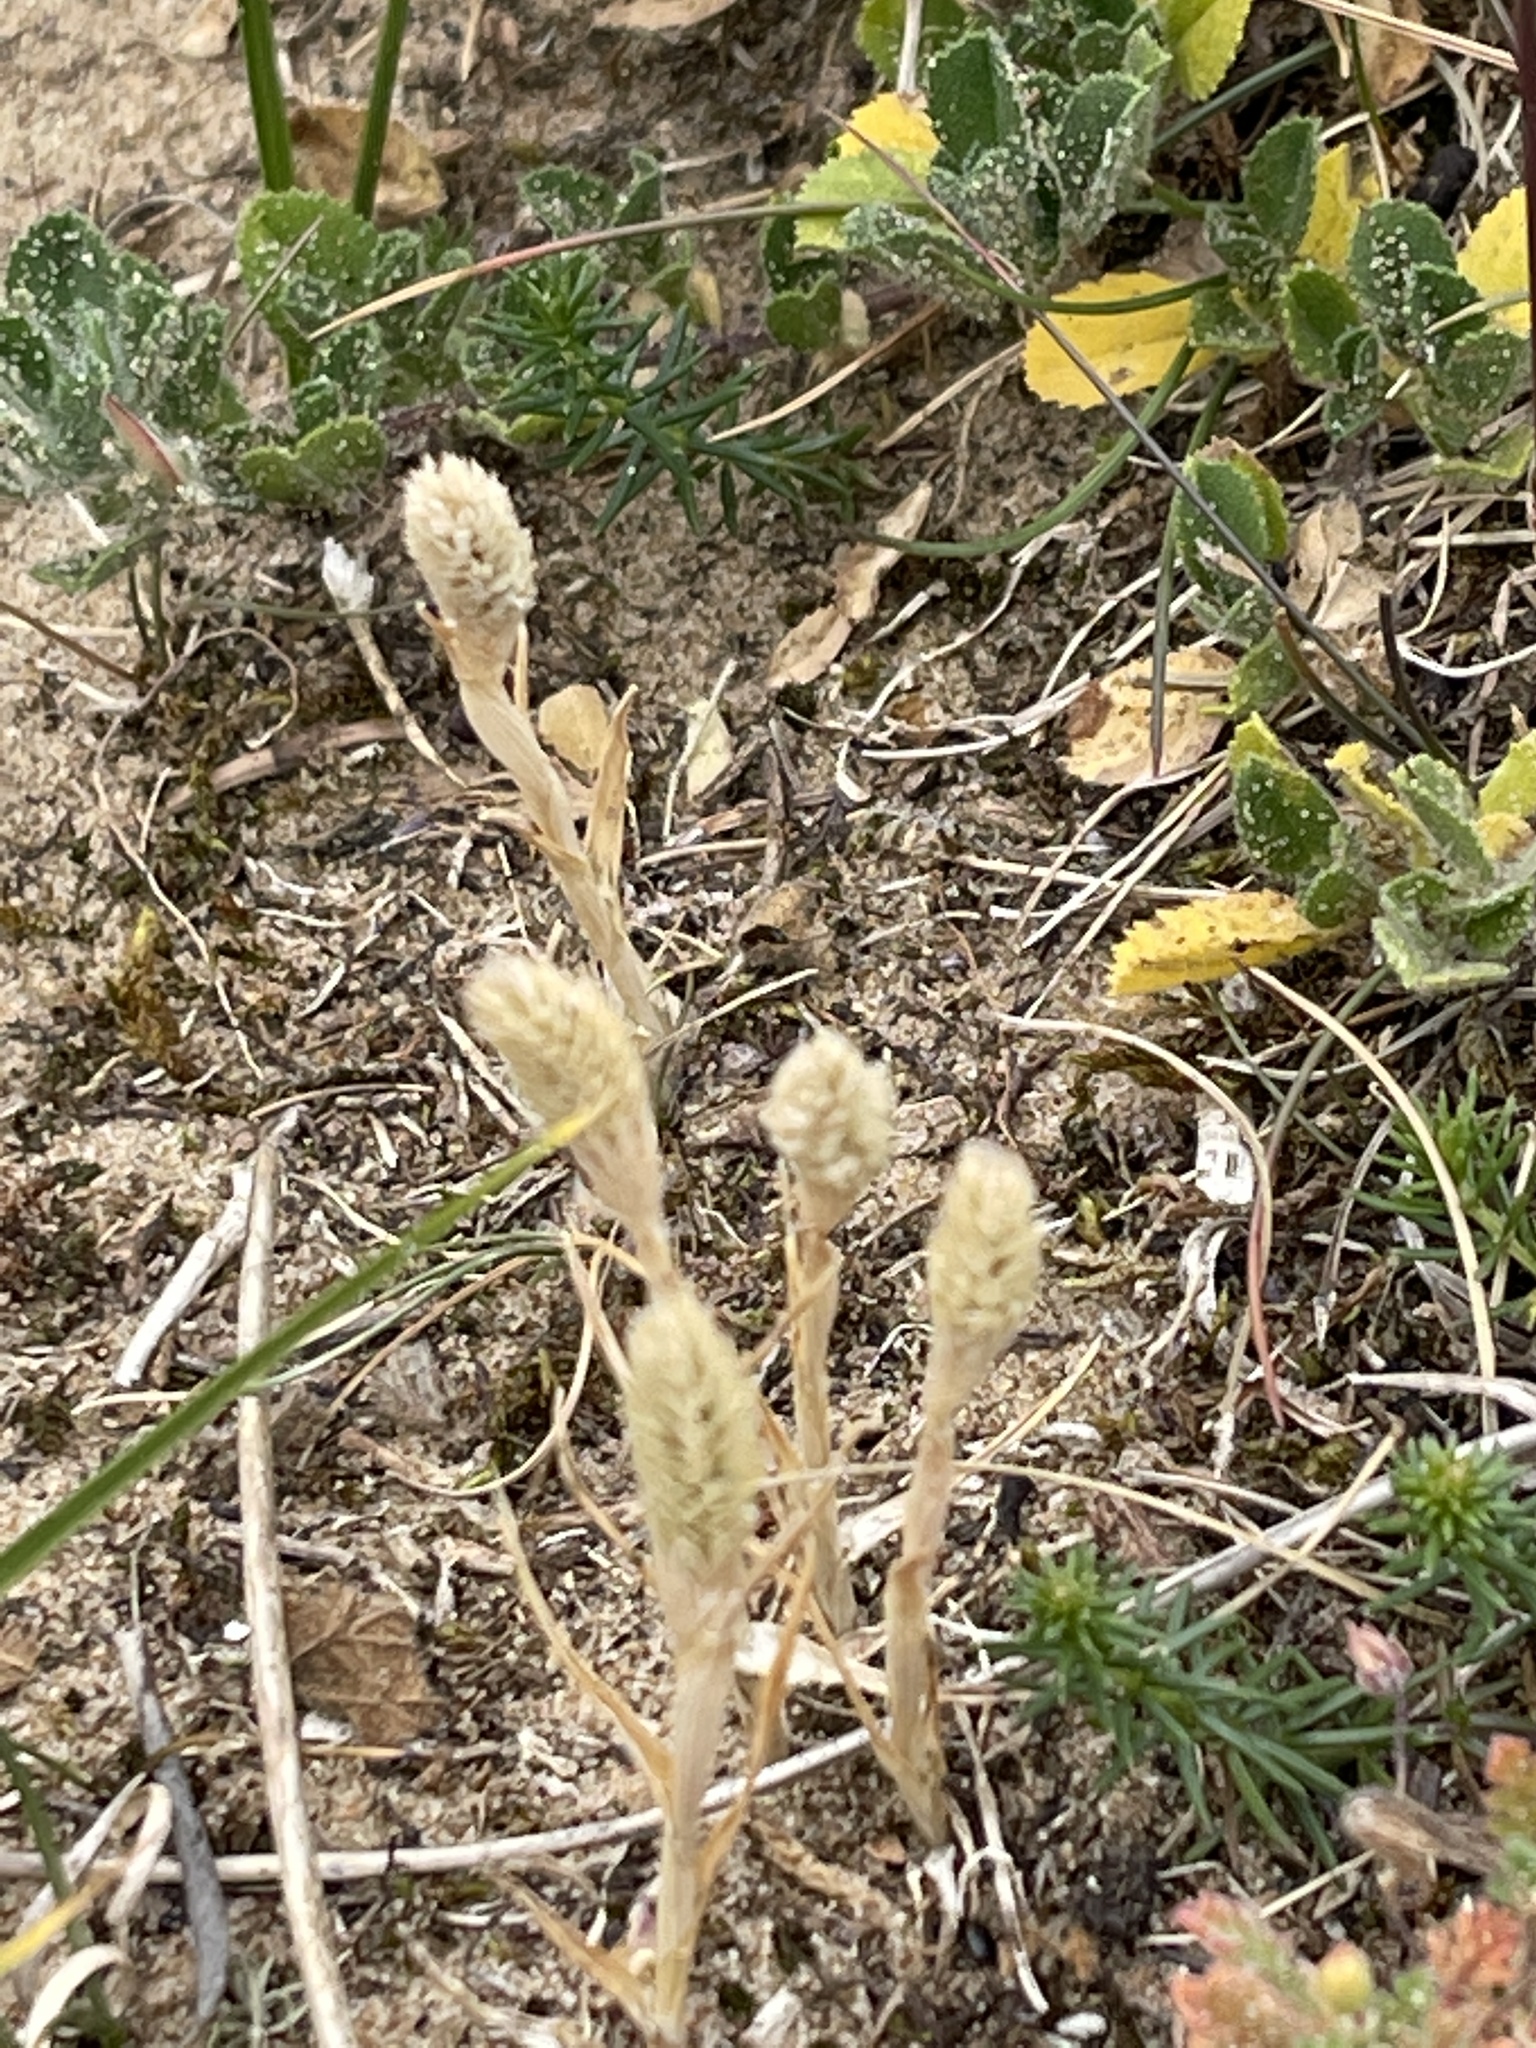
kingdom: Plantae
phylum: Tracheophyta
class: Liliopsida
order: Poales
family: Poaceae
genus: Phleum
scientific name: Phleum arenarium
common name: Sand cat's-tail
